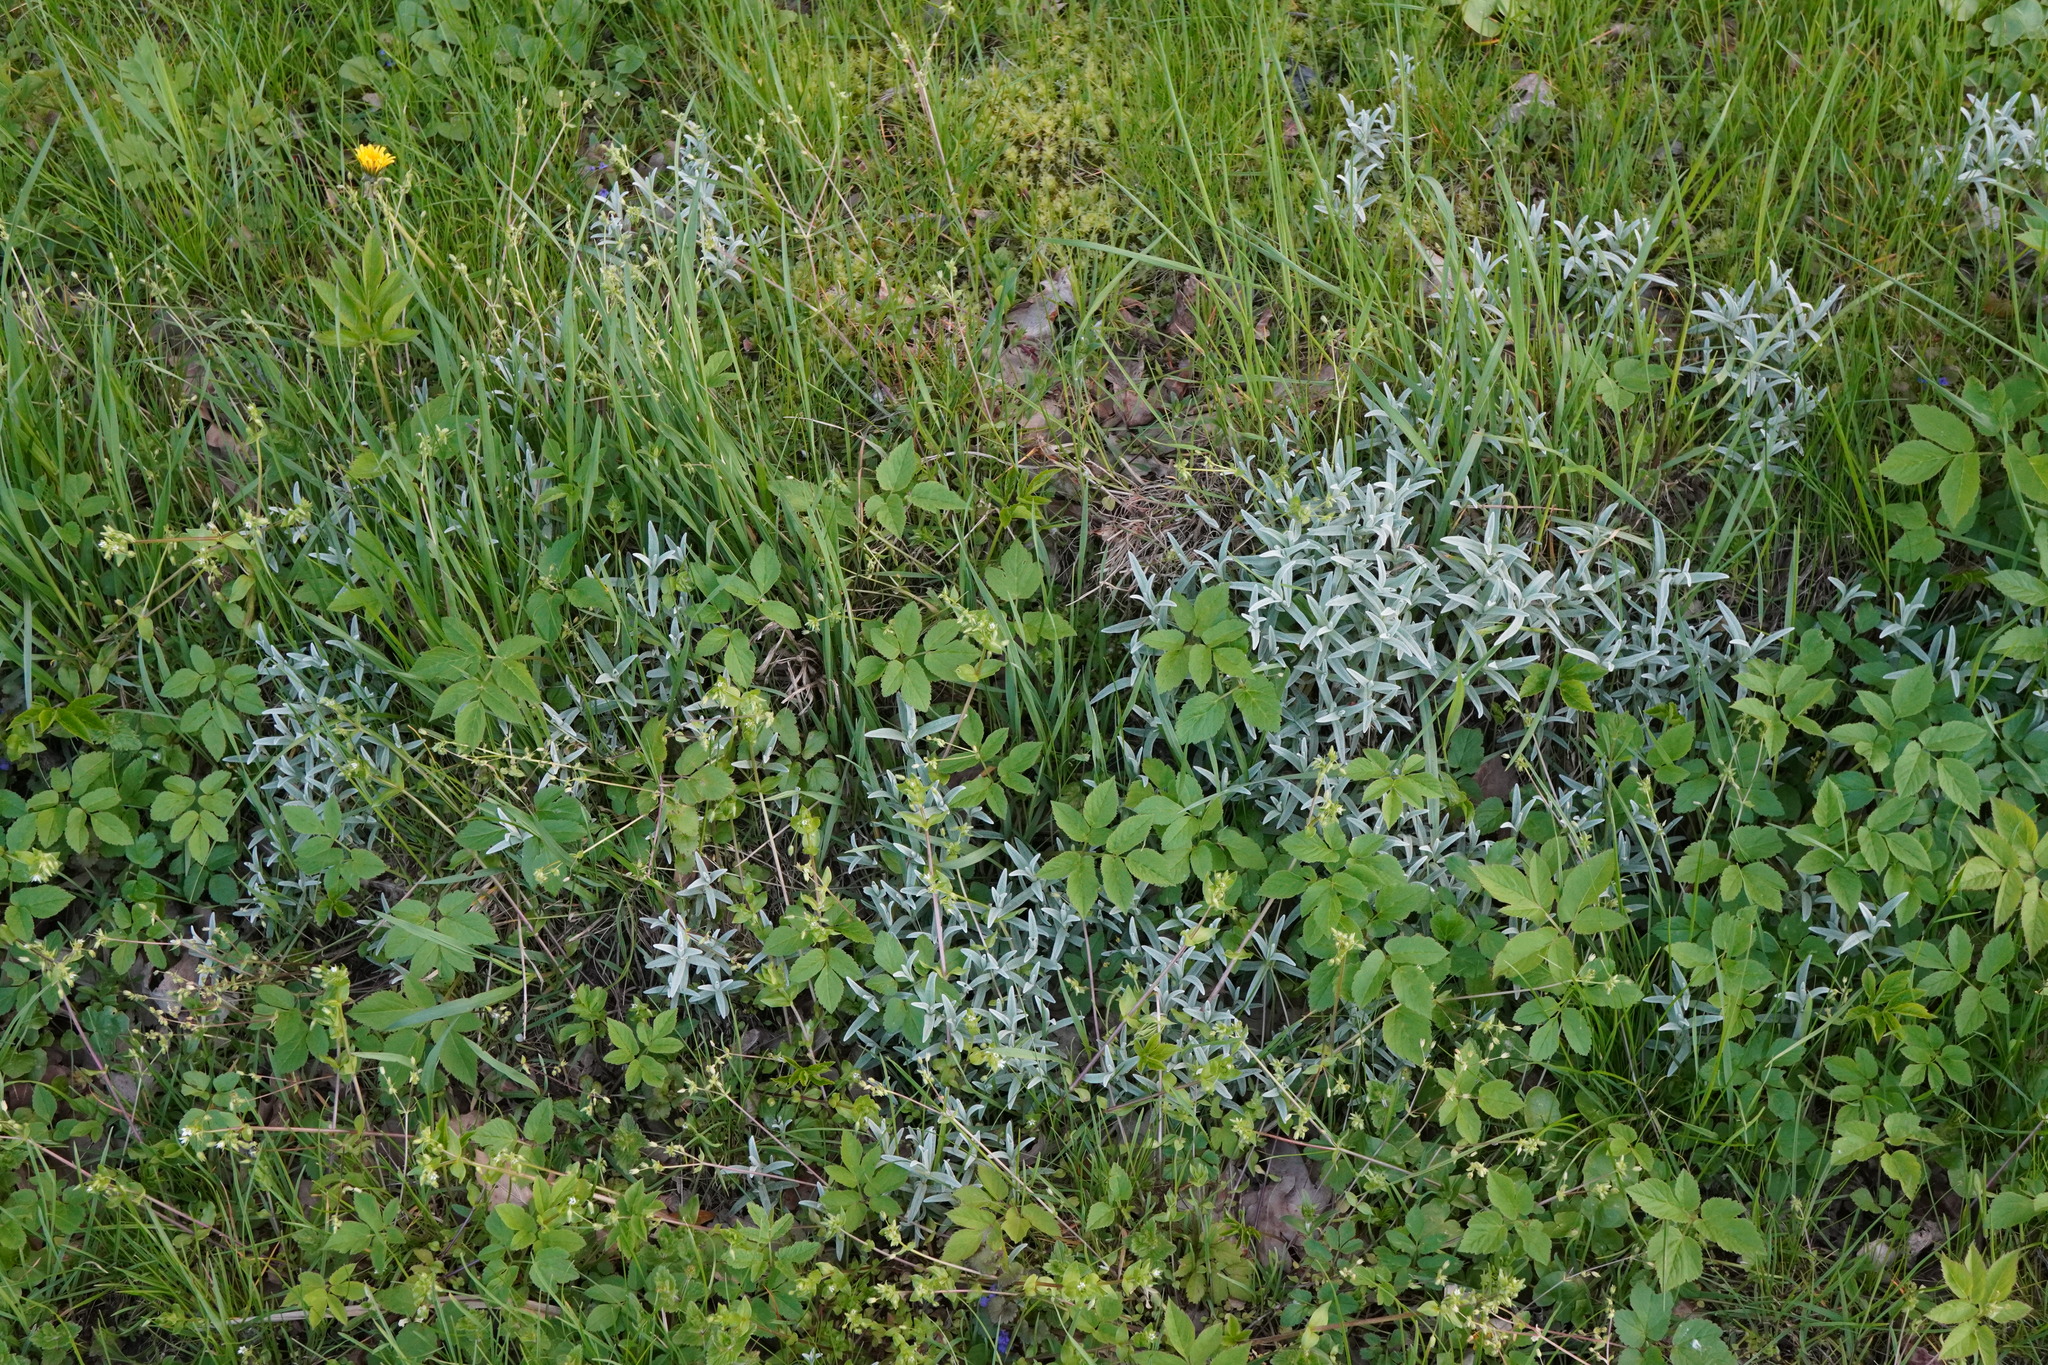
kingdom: Plantae
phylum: Tracheophyta
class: Magnoliopsida
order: Caryophyllales
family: Caryophyllaceae
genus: Cerastium
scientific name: Cerastium tomentosum
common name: Snow-in-summer
